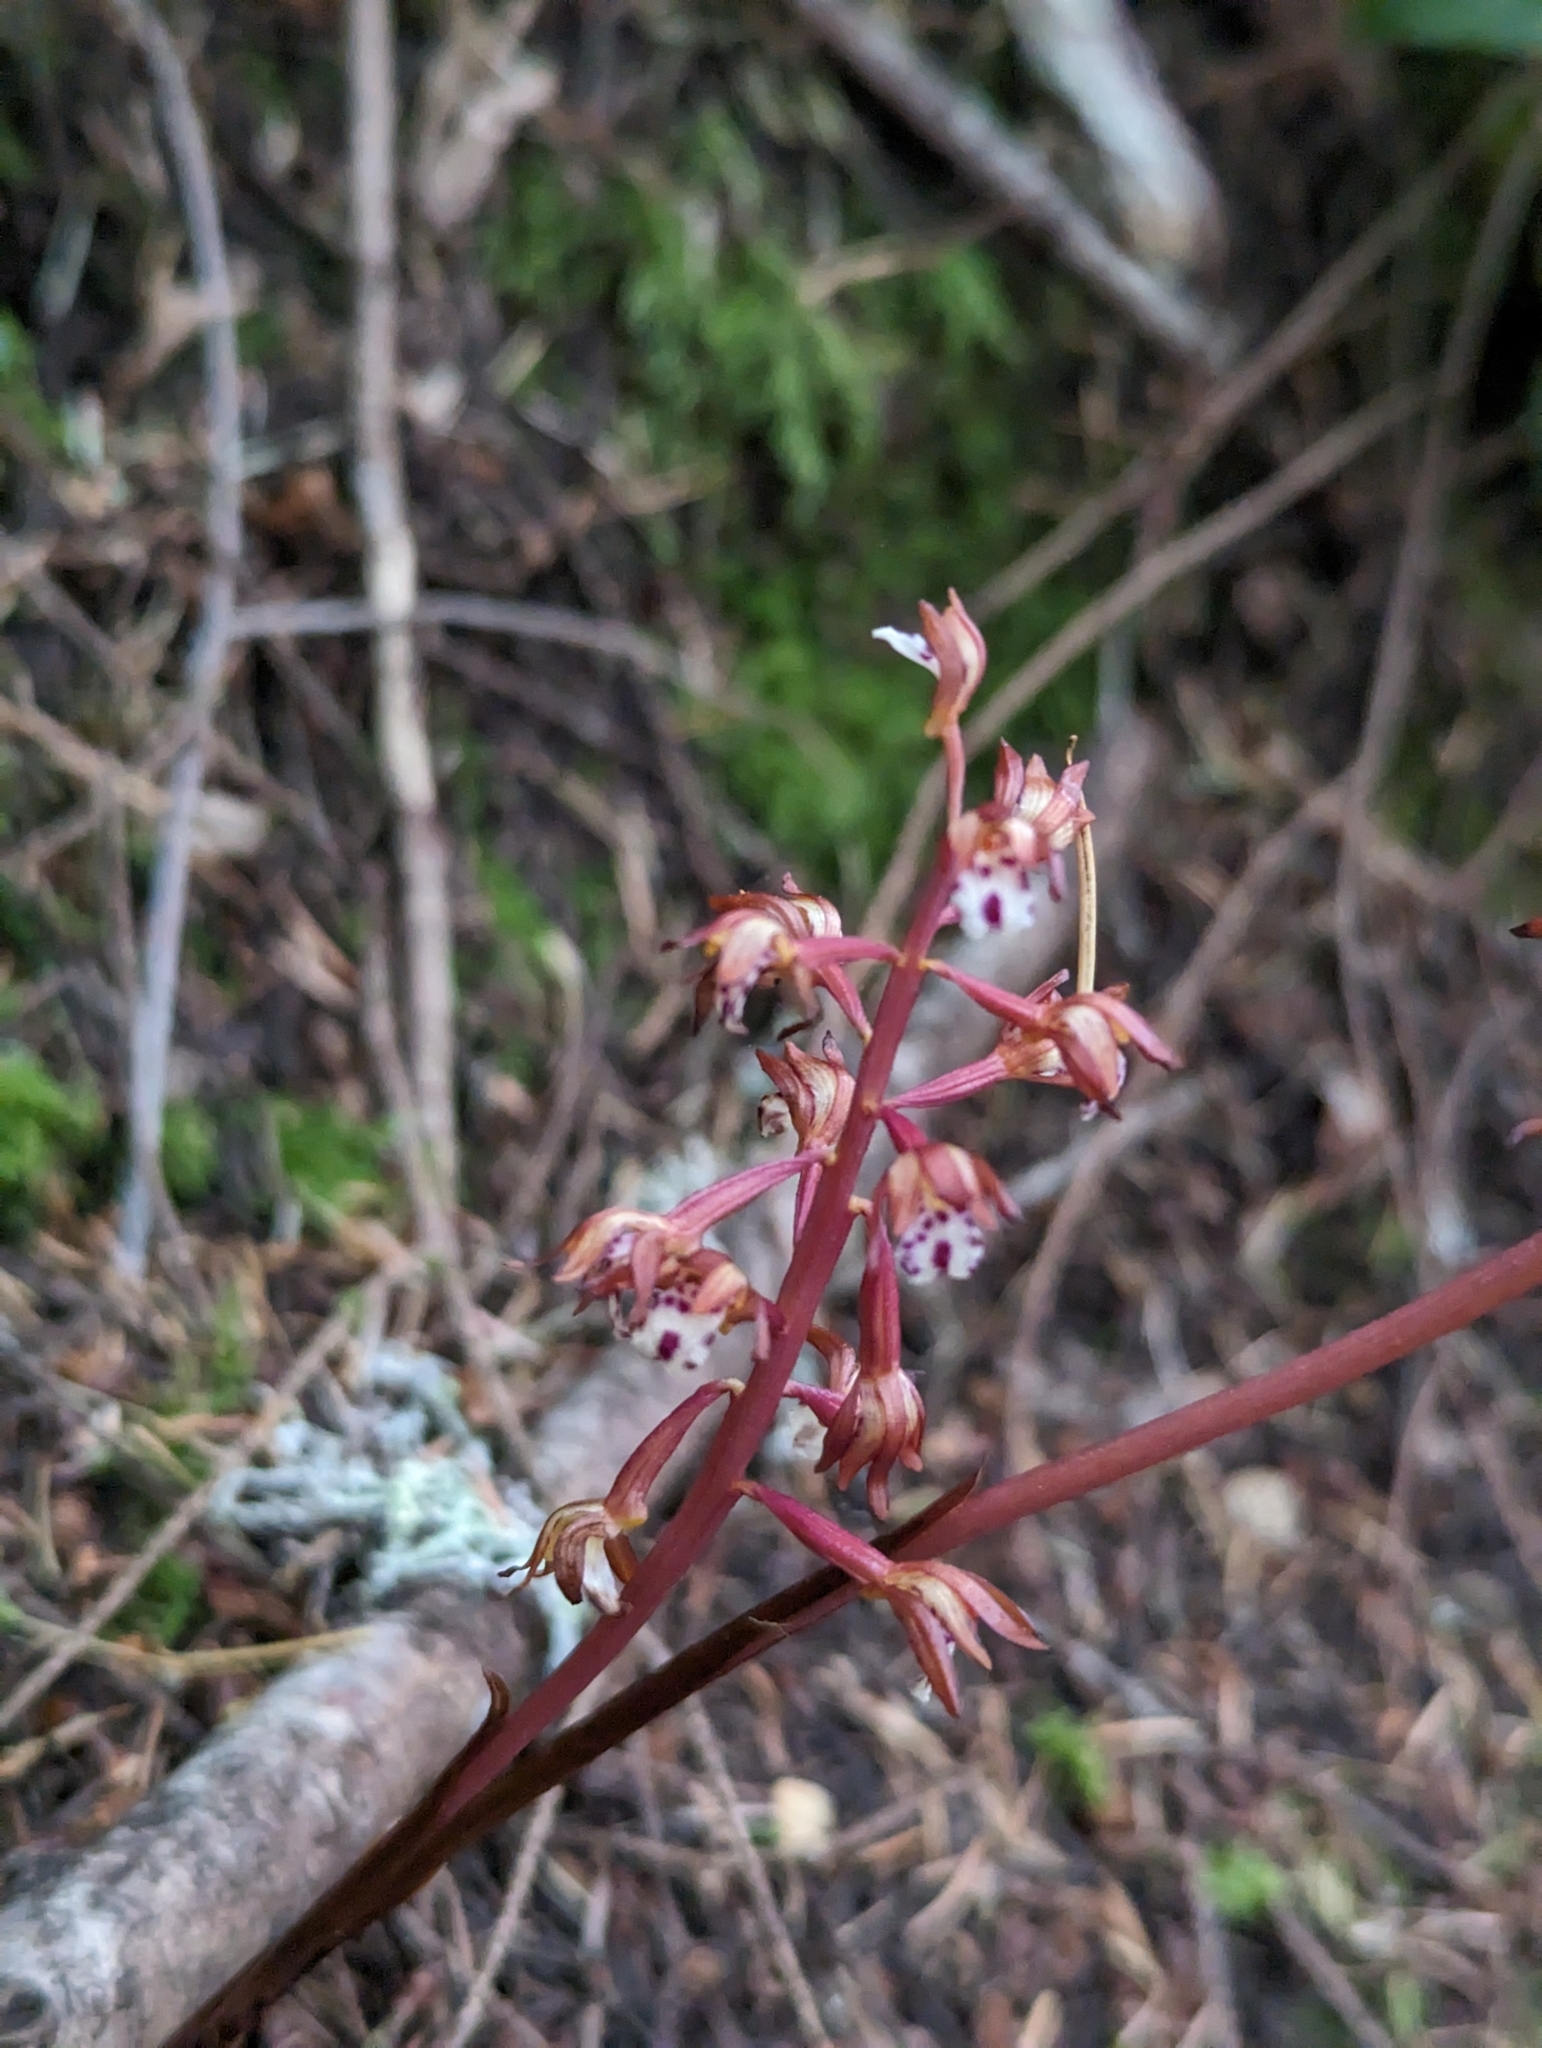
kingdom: Plantae
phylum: Tracheophyta
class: Liliopsida
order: Asparagales
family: Orchidaceae
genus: Corallorhiza
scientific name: Corallorhiza maculata
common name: Spotted coralroot
